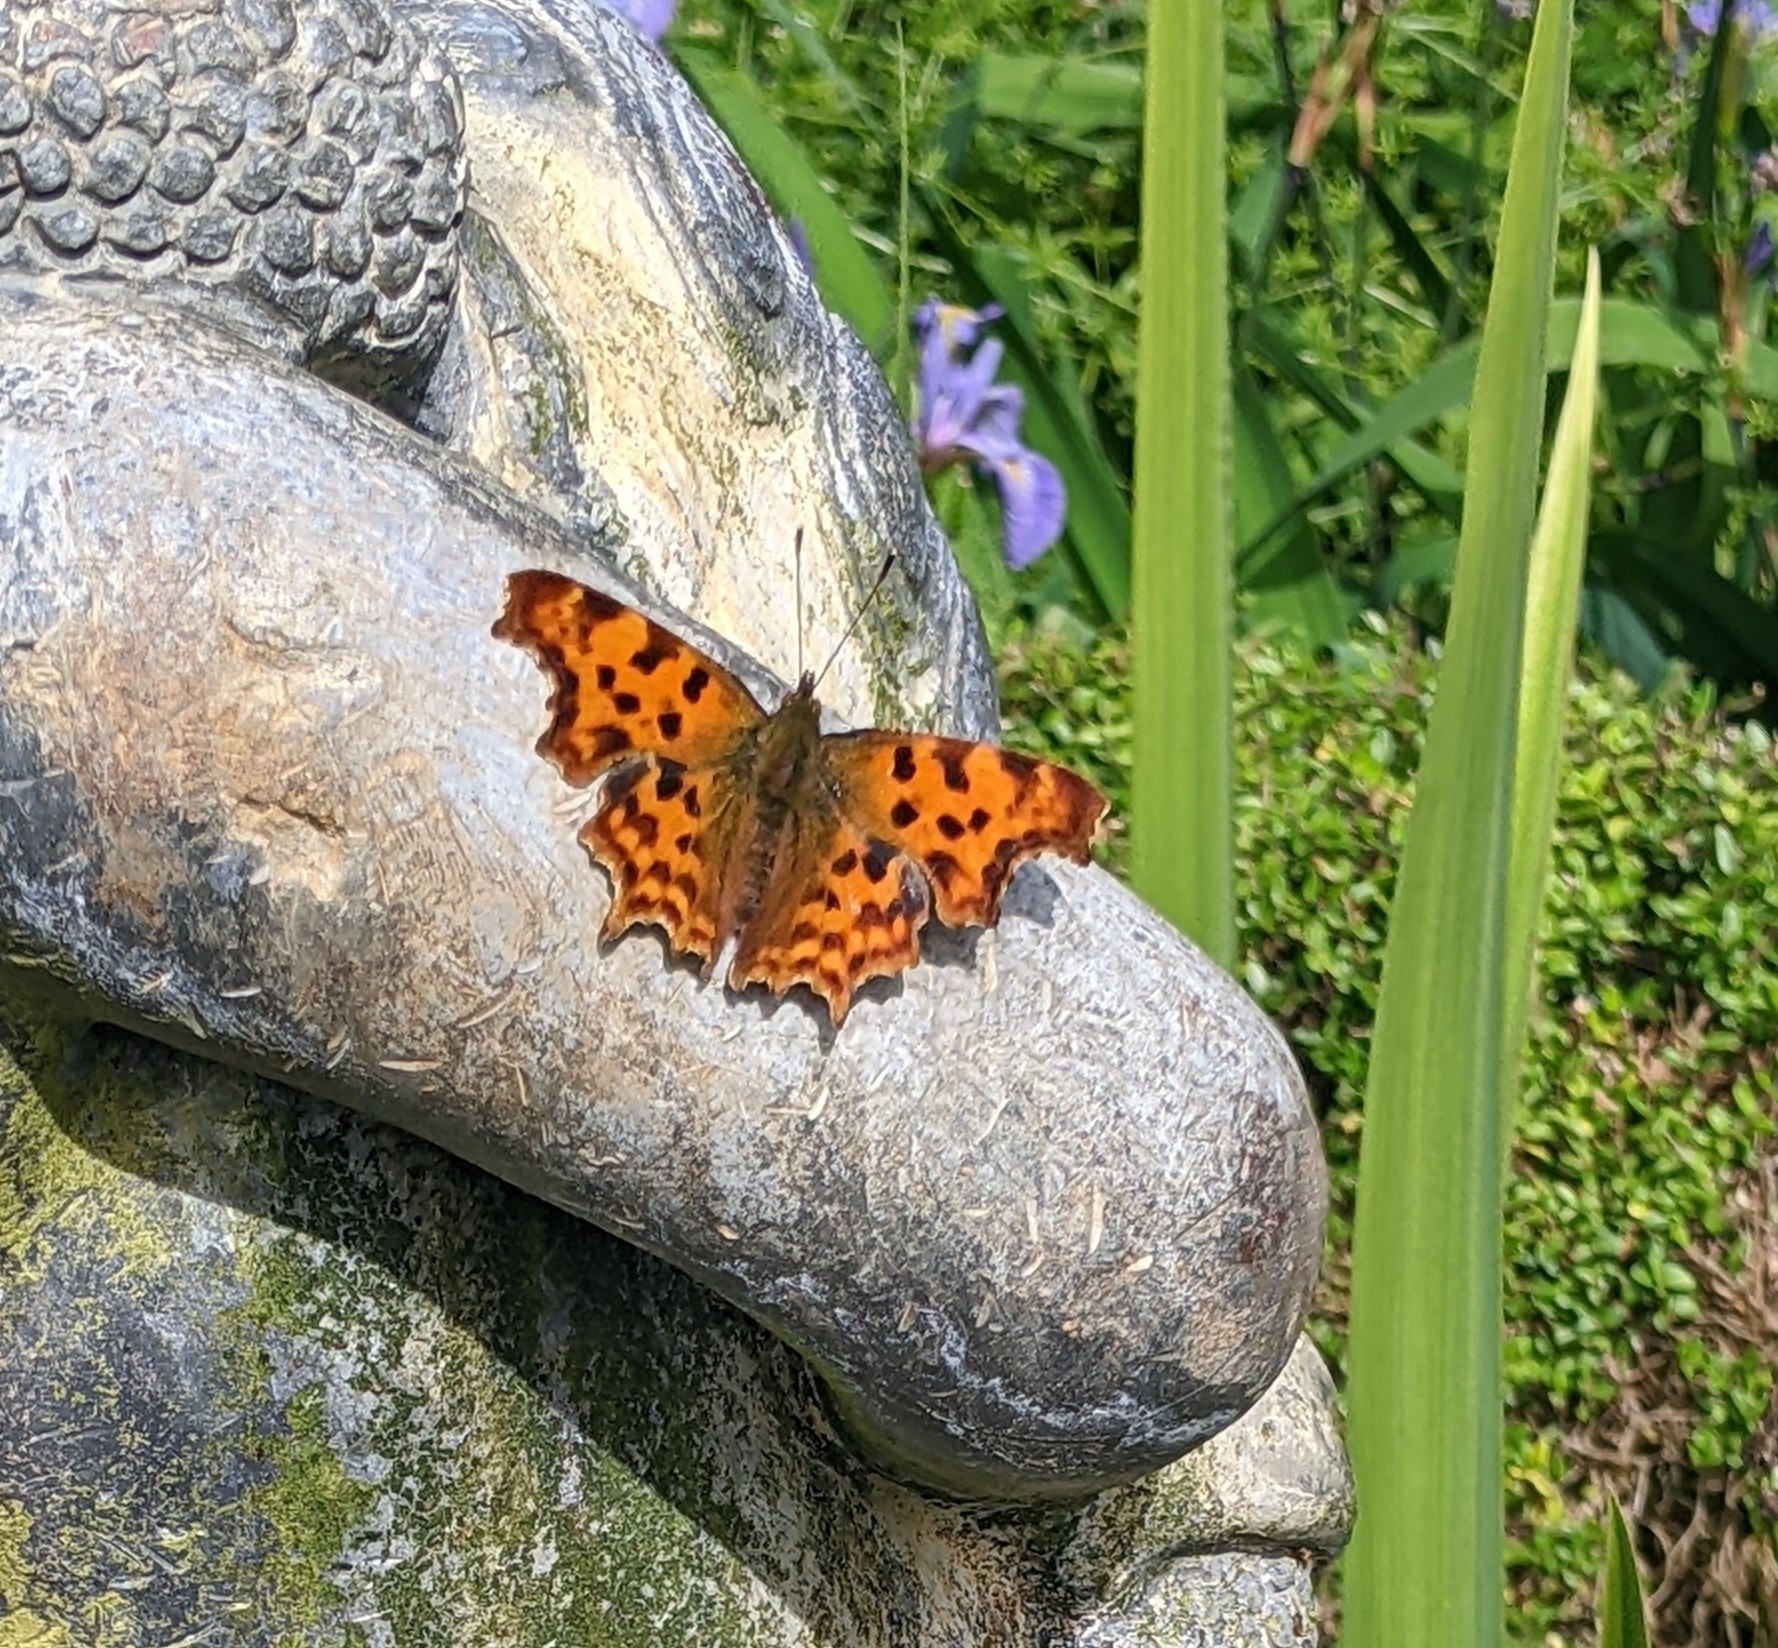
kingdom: Animalia
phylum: Arthropoda
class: Insecta
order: Lepidoptera
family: Nymphalidae
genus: Polygonia
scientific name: Polygonia c-album
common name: Comma
